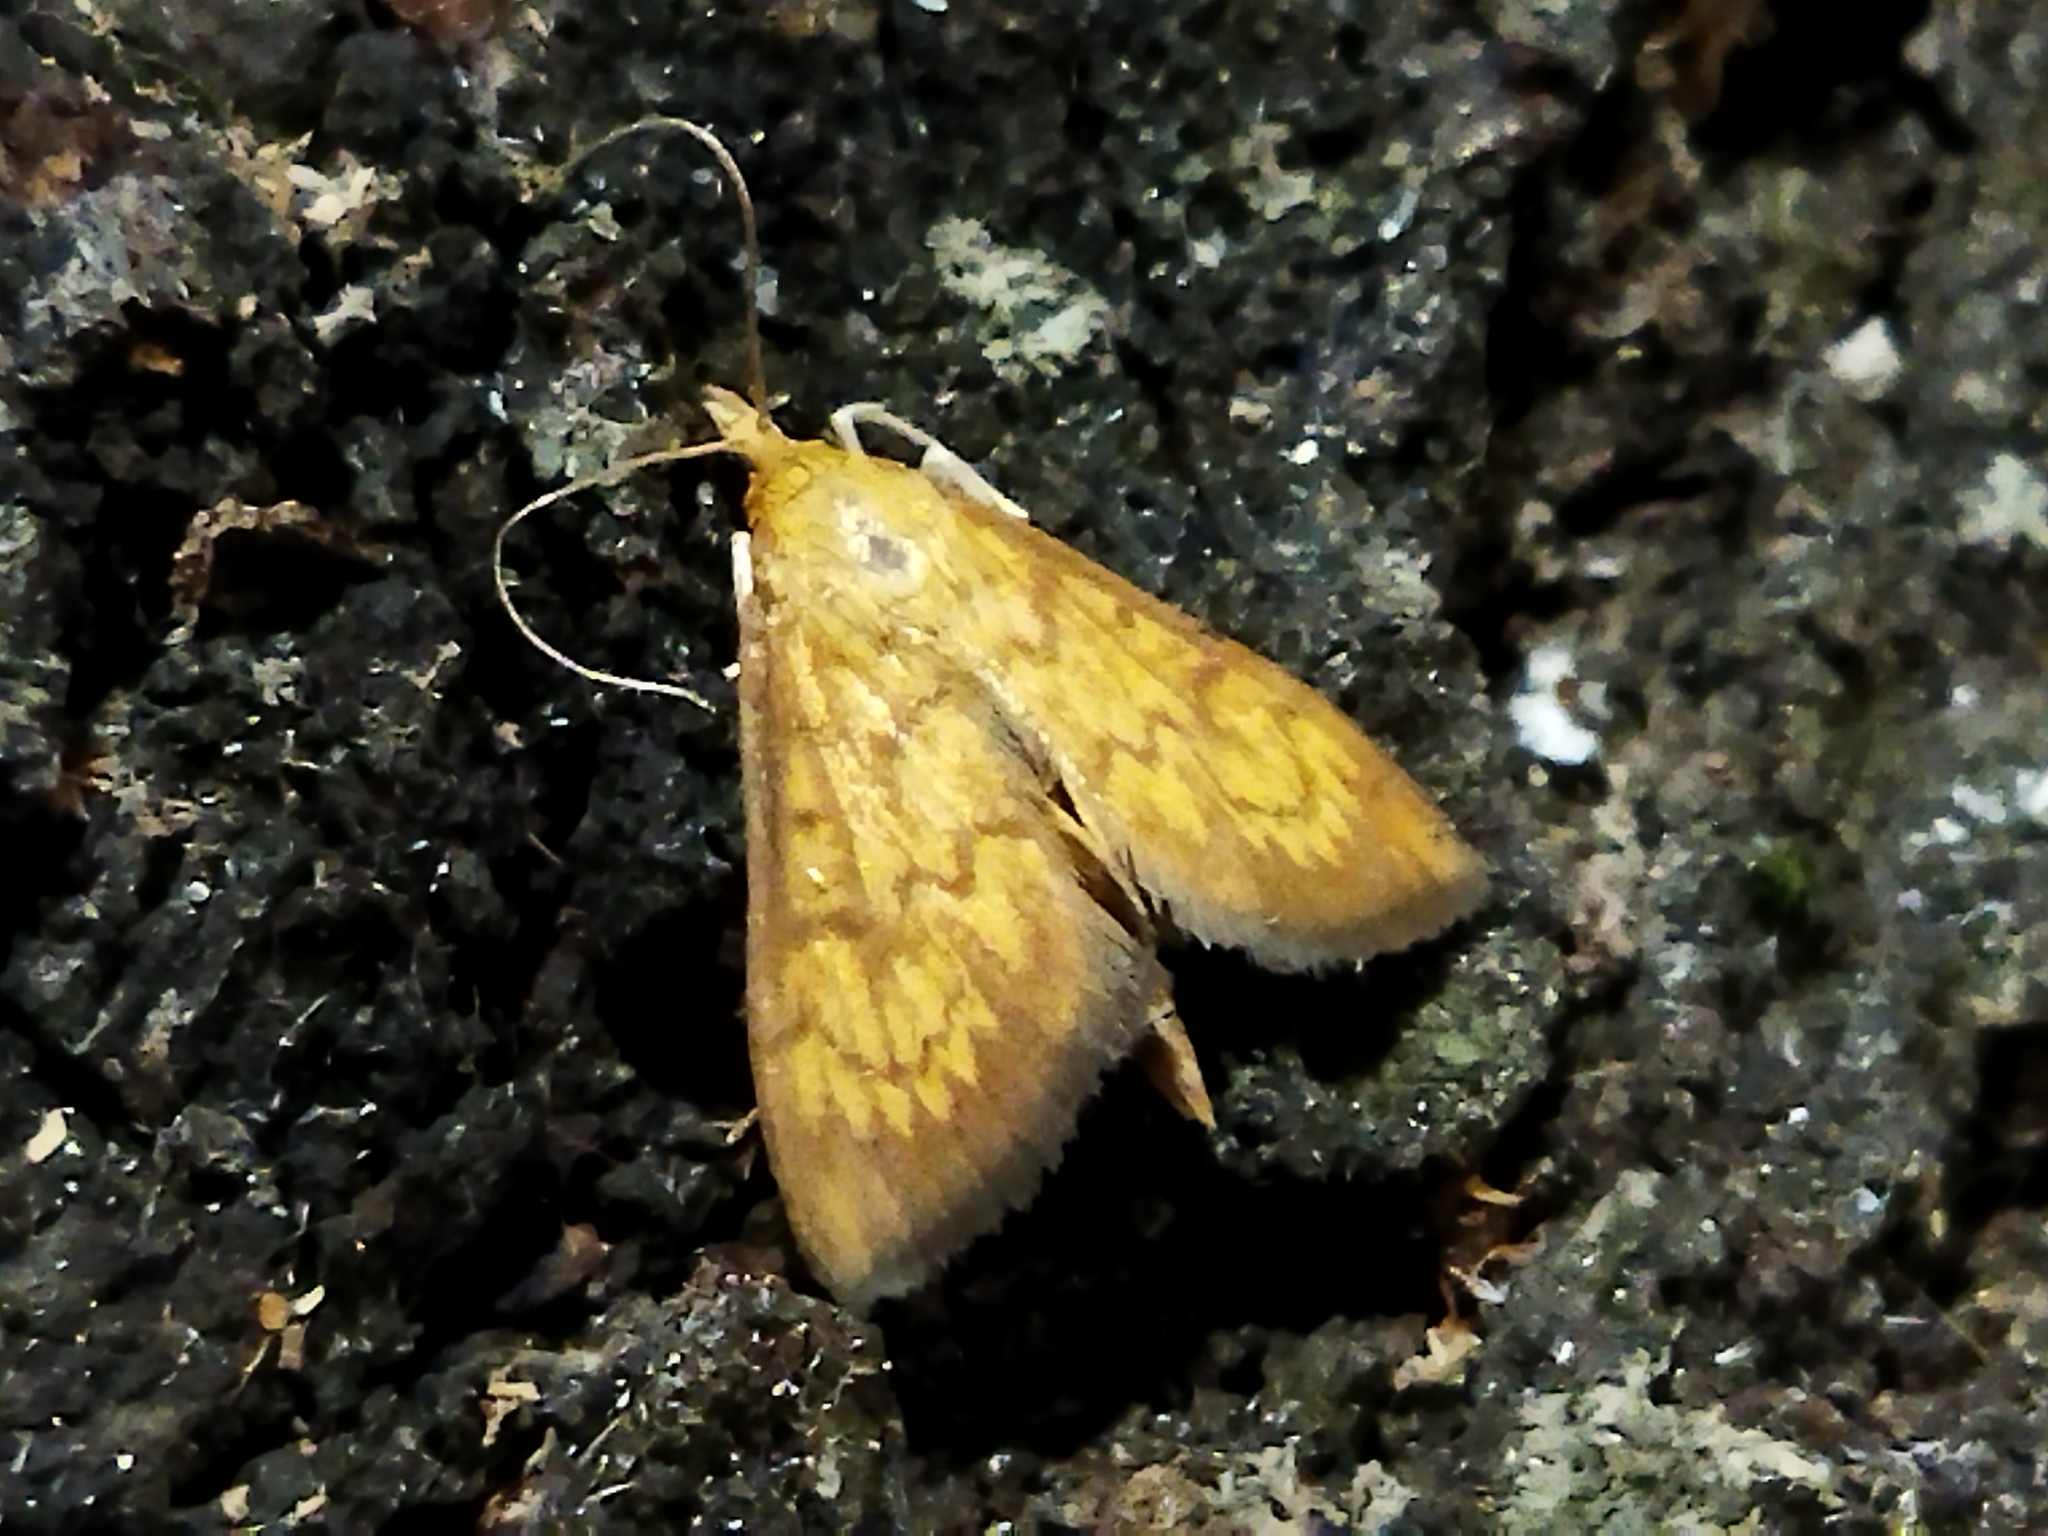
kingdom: Animalia
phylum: Arthropoda
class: Insecta
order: Lepidoptera
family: Crambidae
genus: Ecpyrrhorrhoe
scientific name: Ecpyrrhorrhoe rubiginalis
